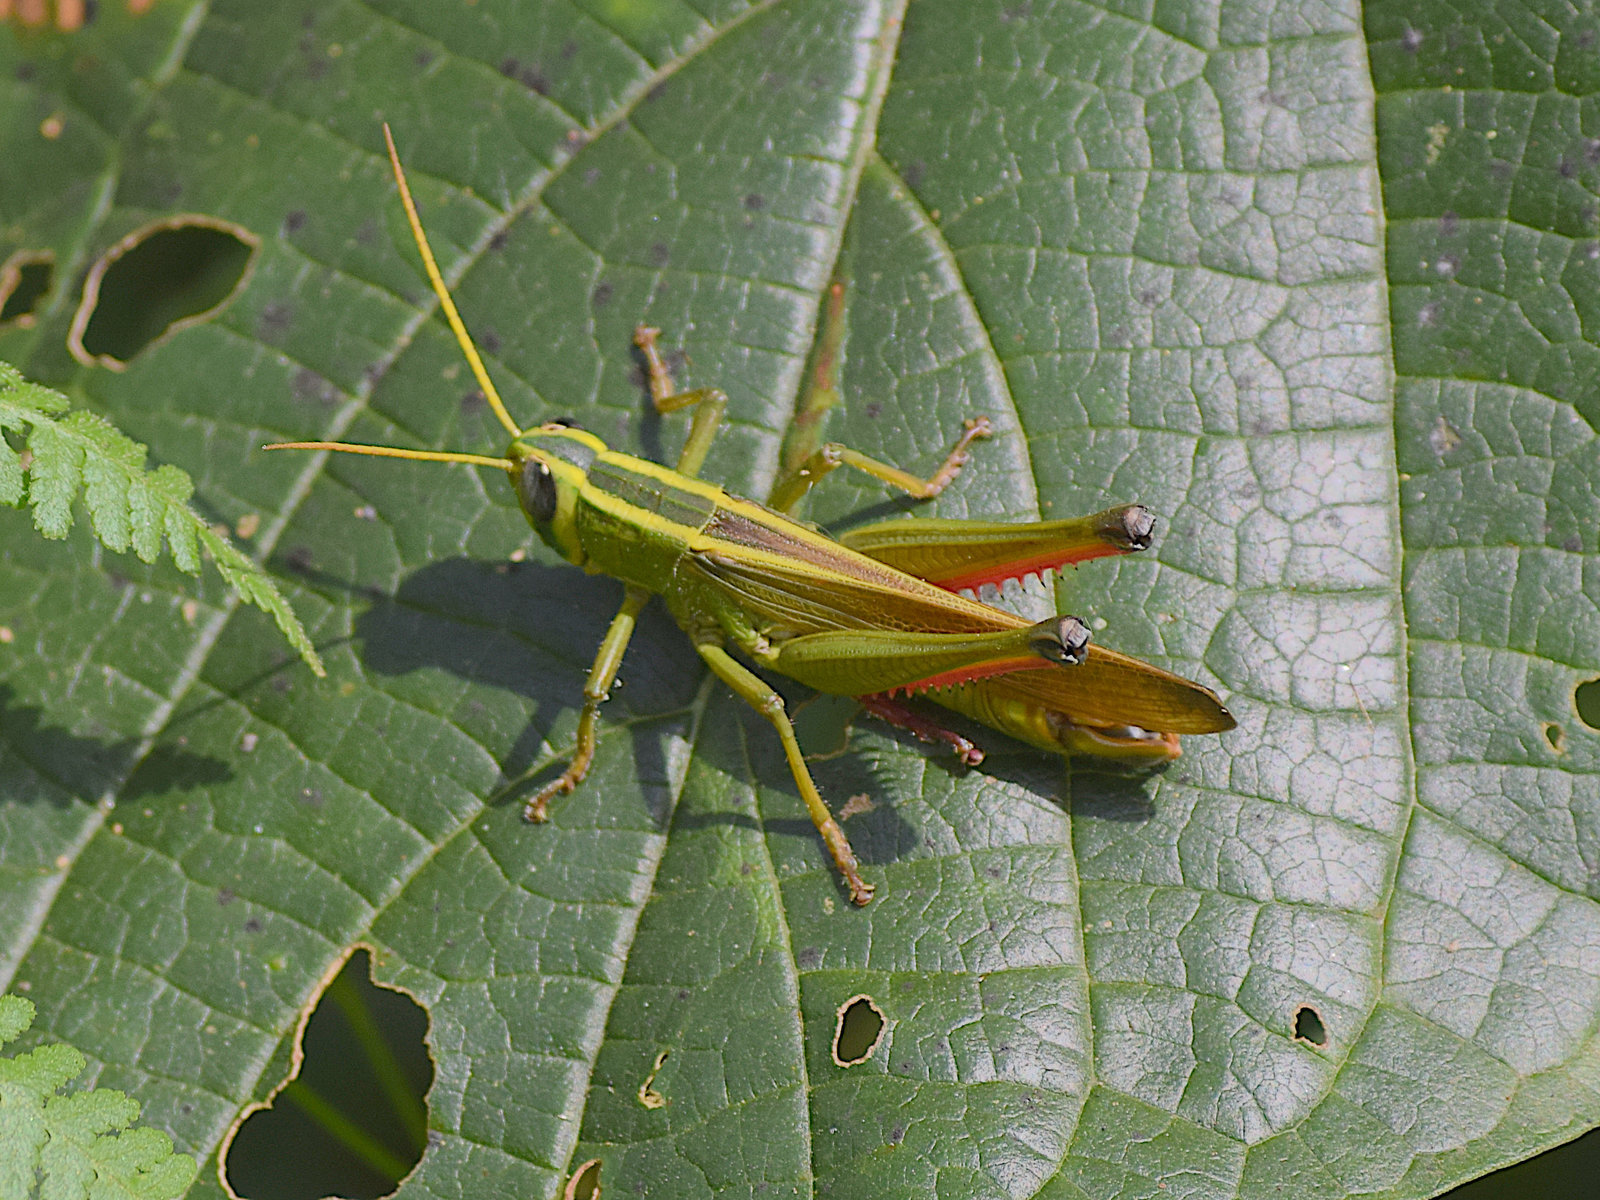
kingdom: Animalia
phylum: Arthropoda
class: Insecta
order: Orthoptera
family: Acrididae
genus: Choroedocus
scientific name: Choroedocus robustus
